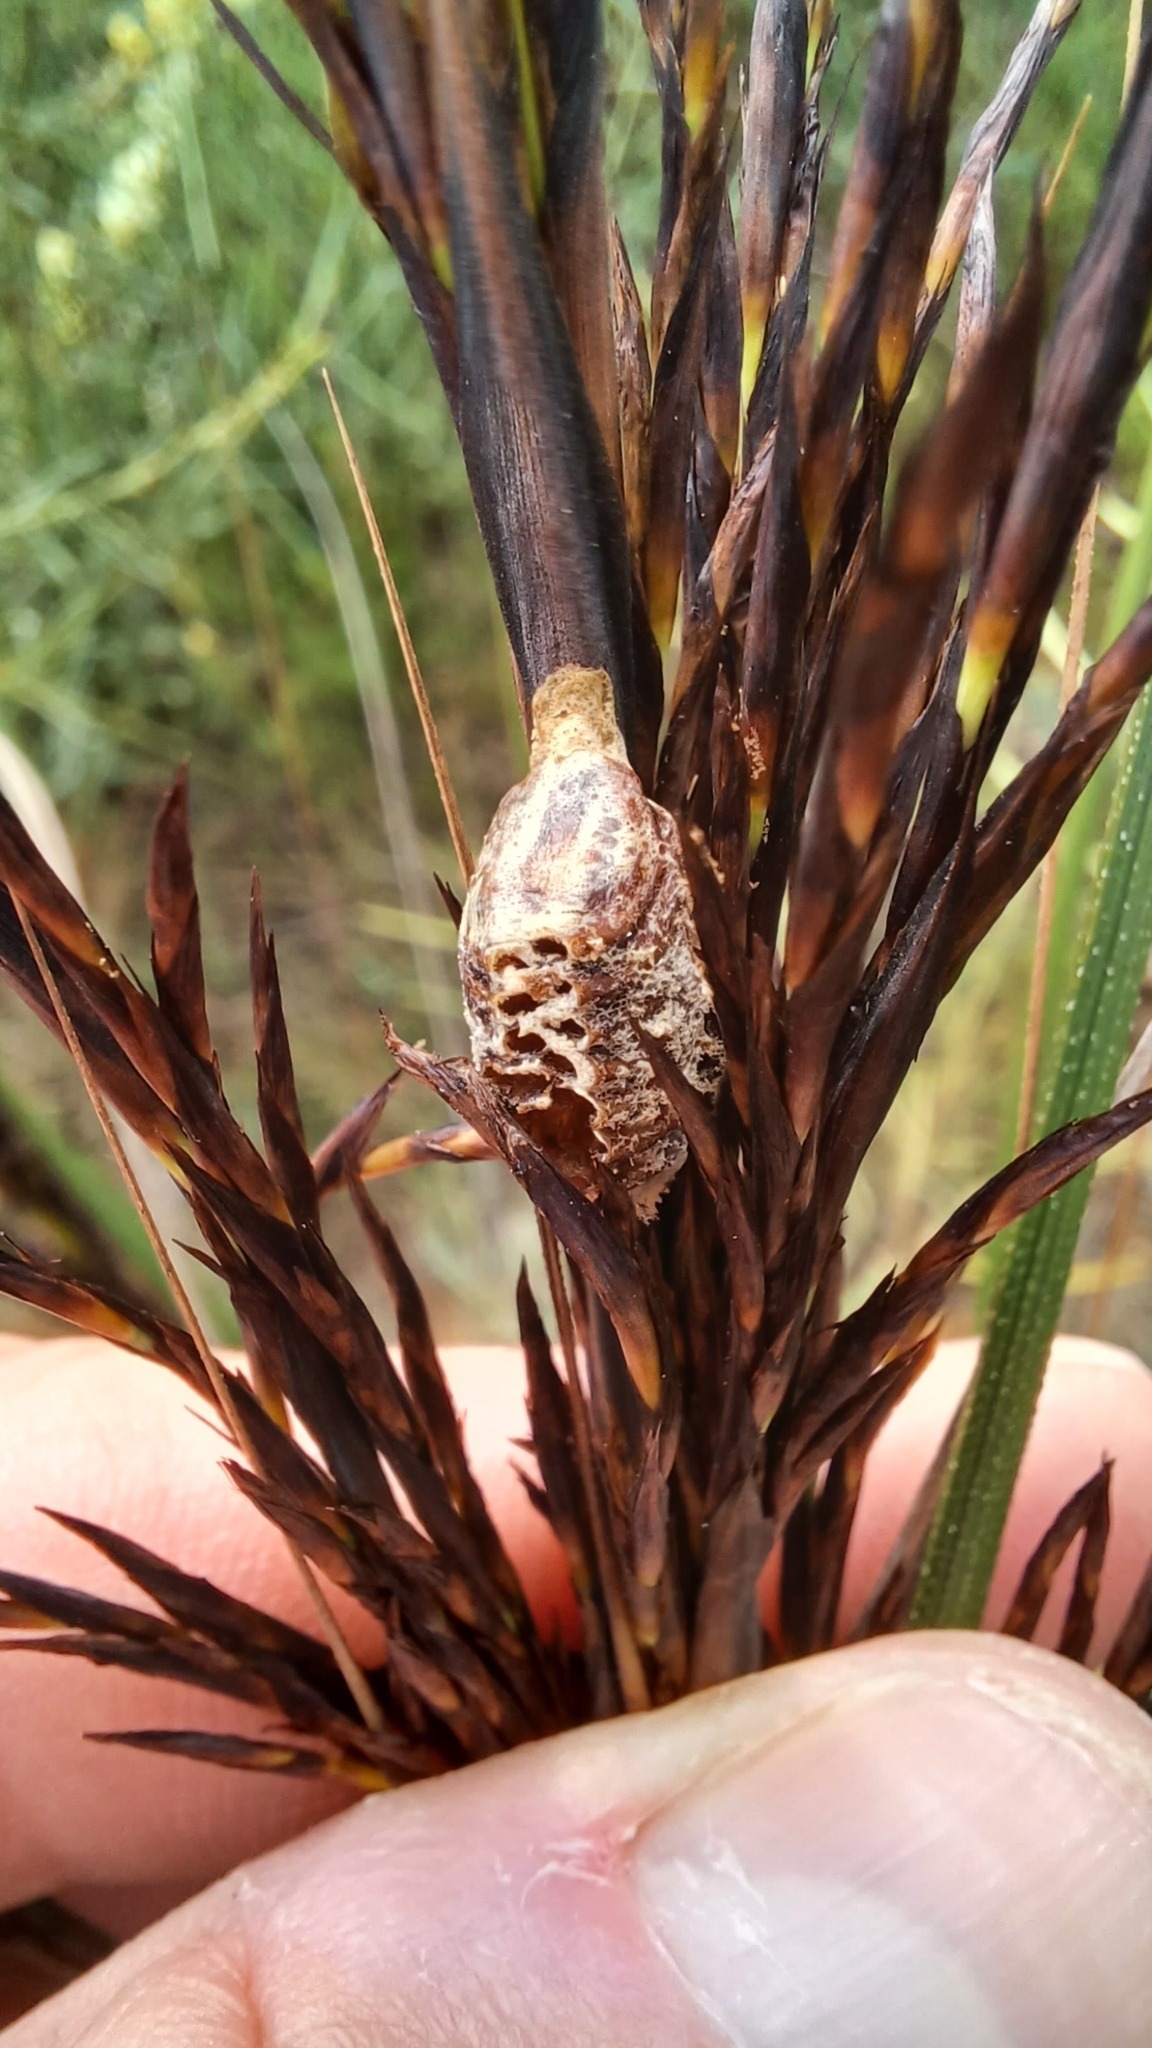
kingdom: Animalia
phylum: Arthropoda
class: Insecta
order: Mantodea
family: Mantidae
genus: Orthodera
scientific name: Orthodera ministralis
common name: Mantis
